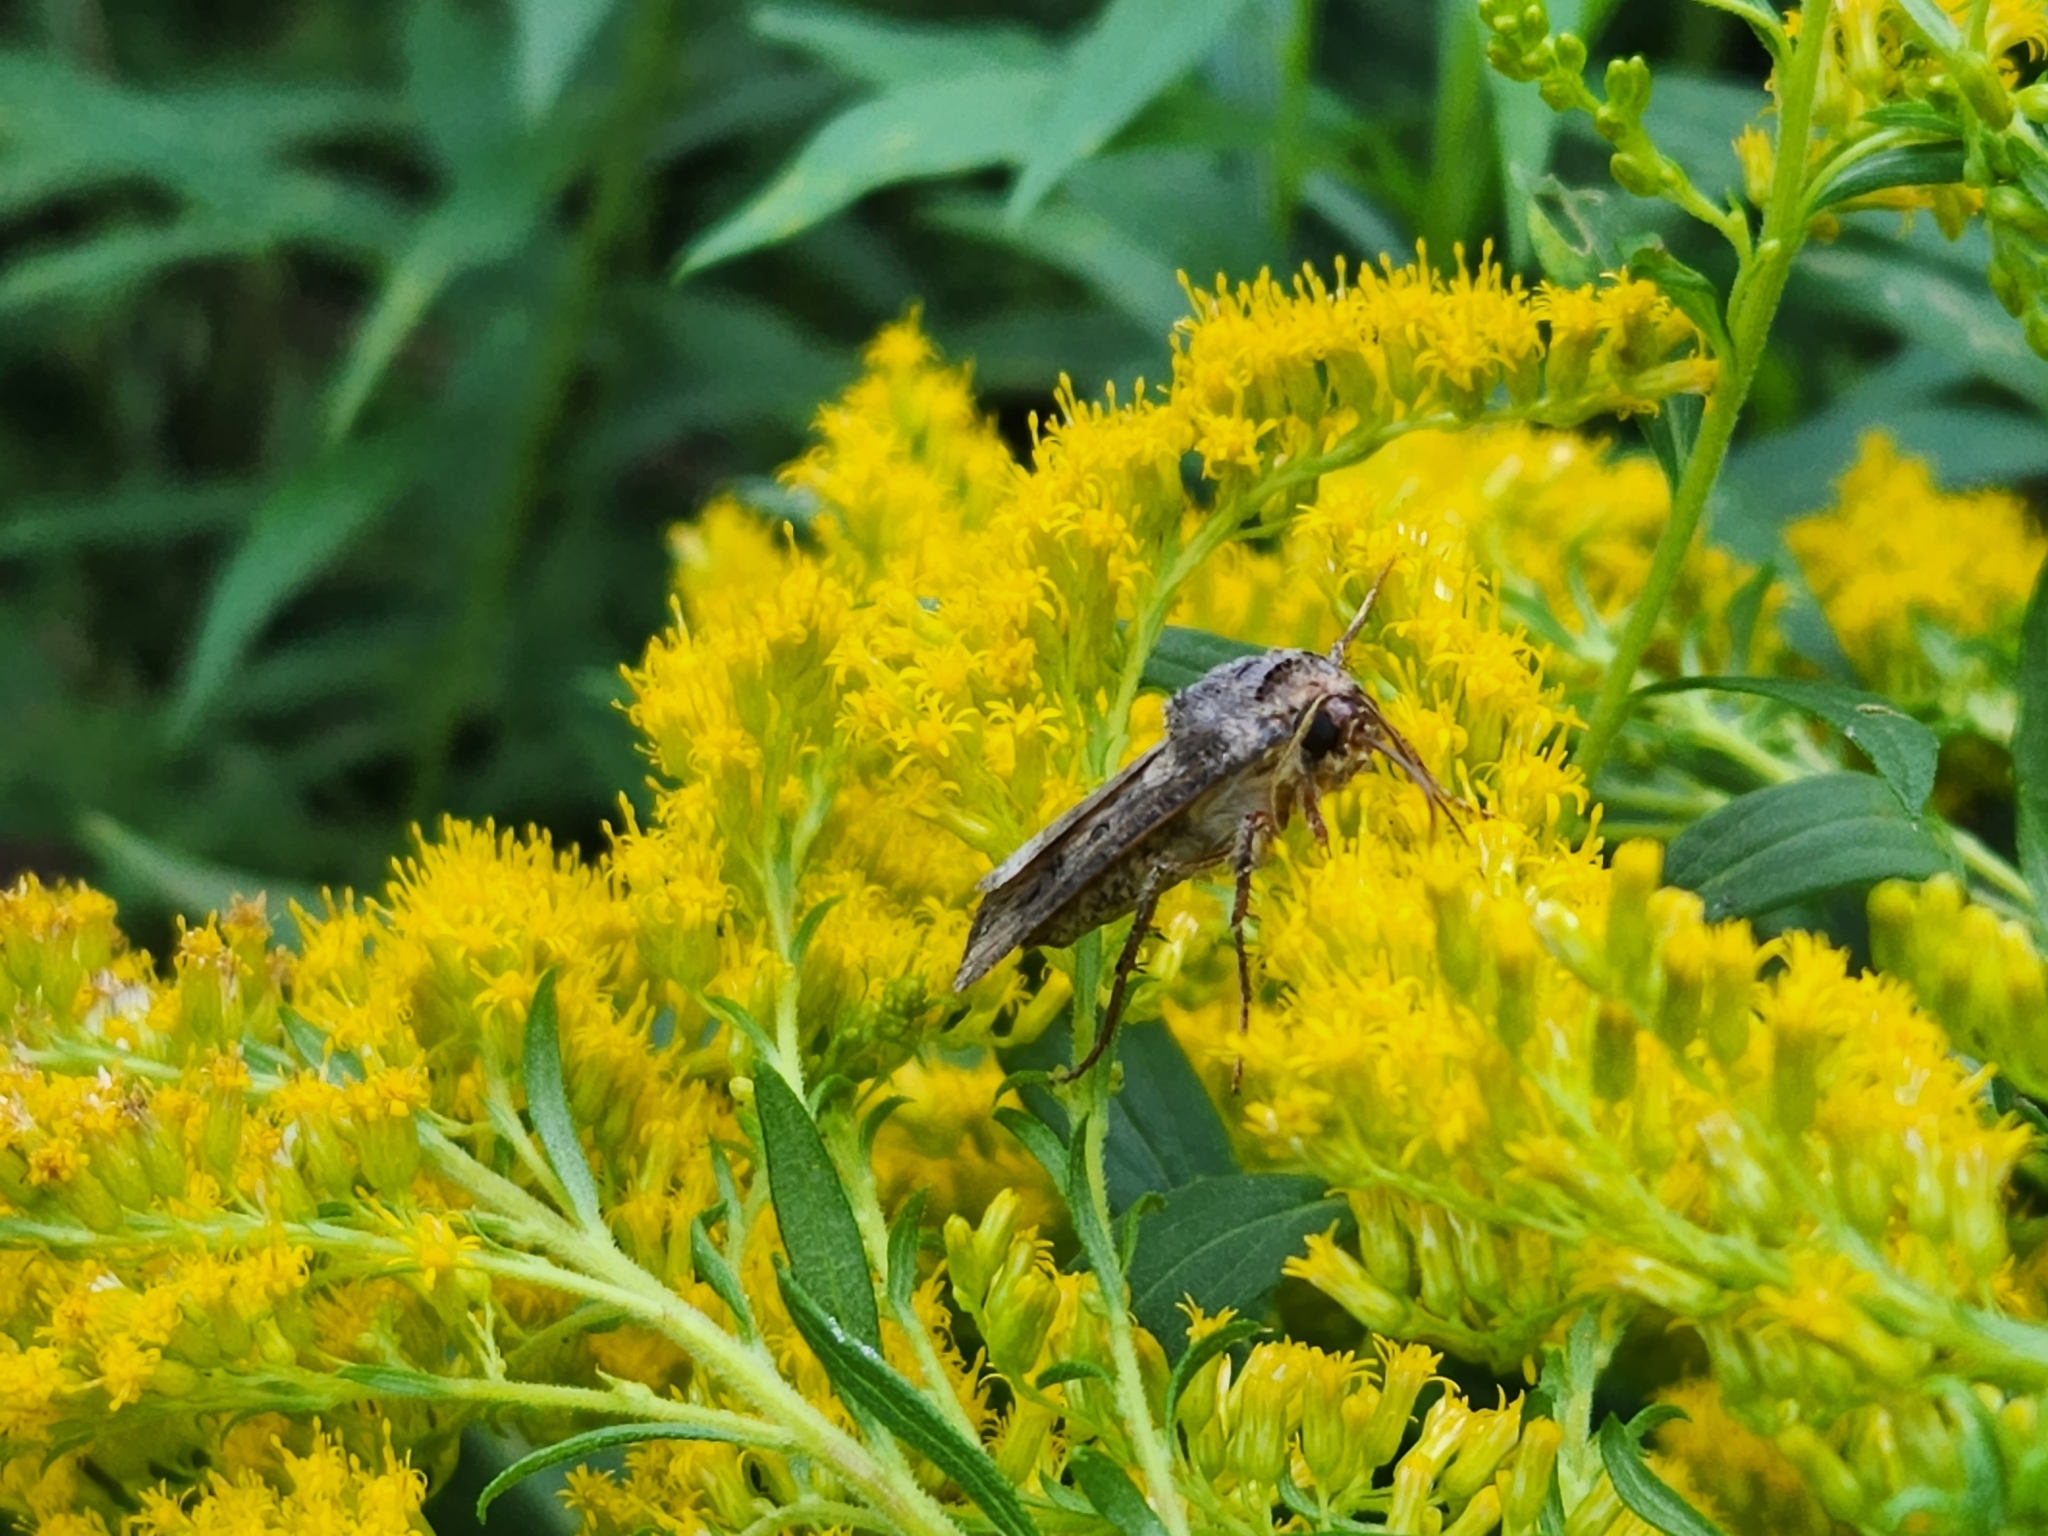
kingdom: Animalia
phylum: Arthropoda
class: Insecta
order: Lepidoptera
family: Noctuidae
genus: Agrotis
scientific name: Agrotis ipsilon
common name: Dark sword-grass
